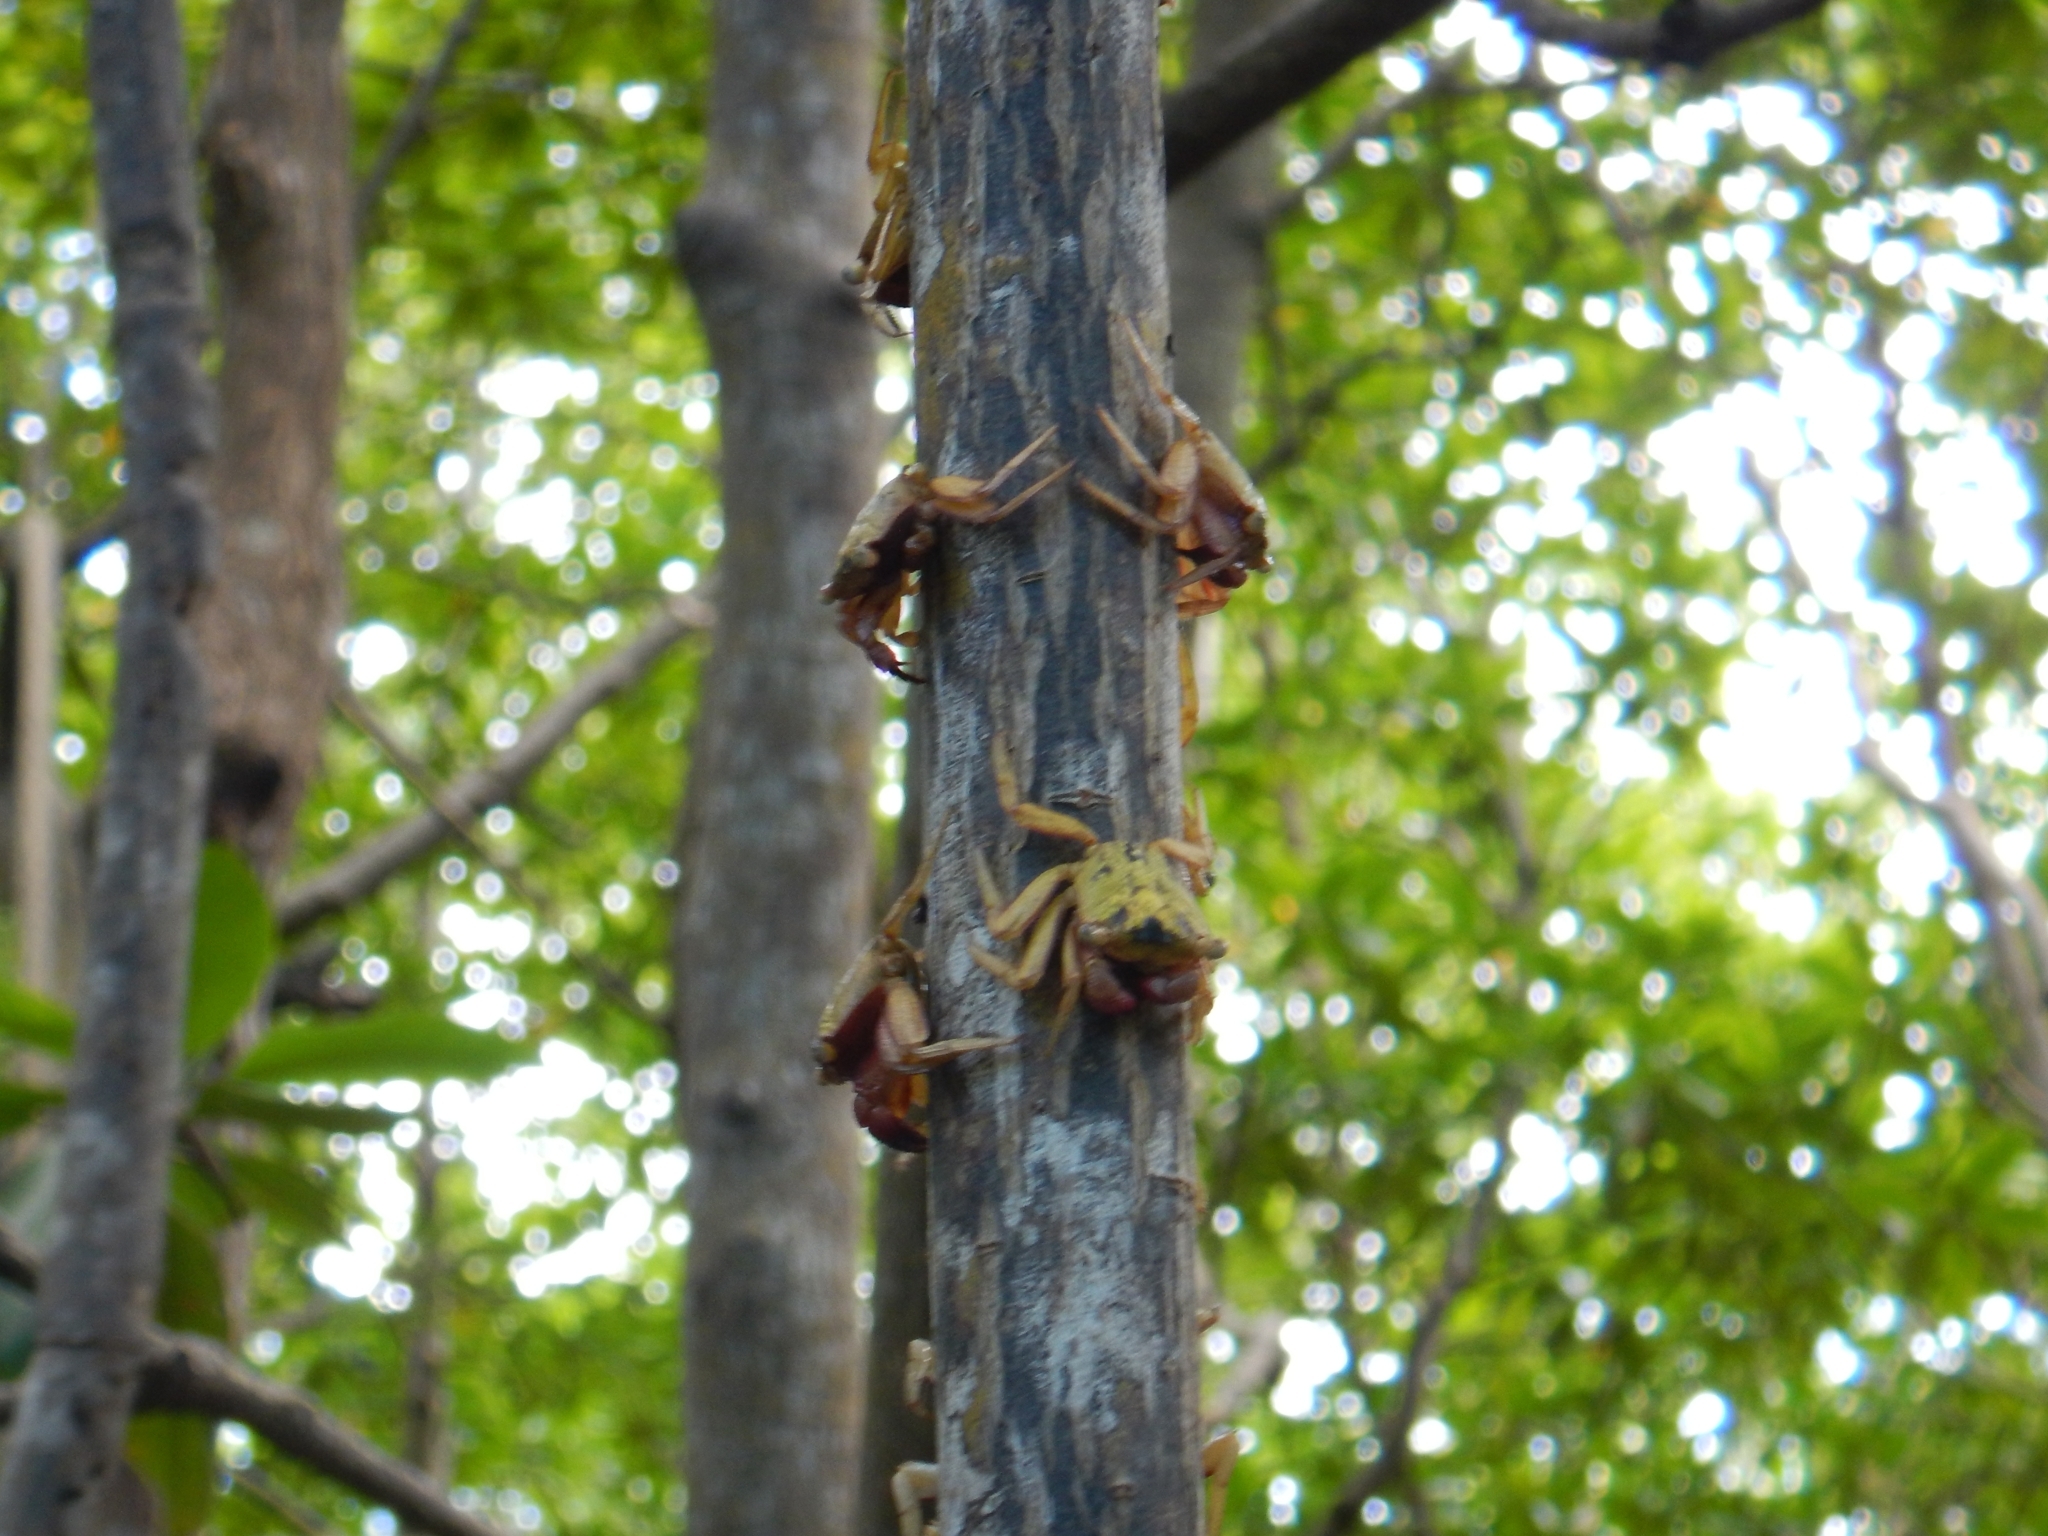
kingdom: Animalia
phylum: Arthropoda
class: Malacostraca
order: Decapoda
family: Sesarmidae
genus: Aratus
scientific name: Aratus pisonii
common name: Mangrove crab
